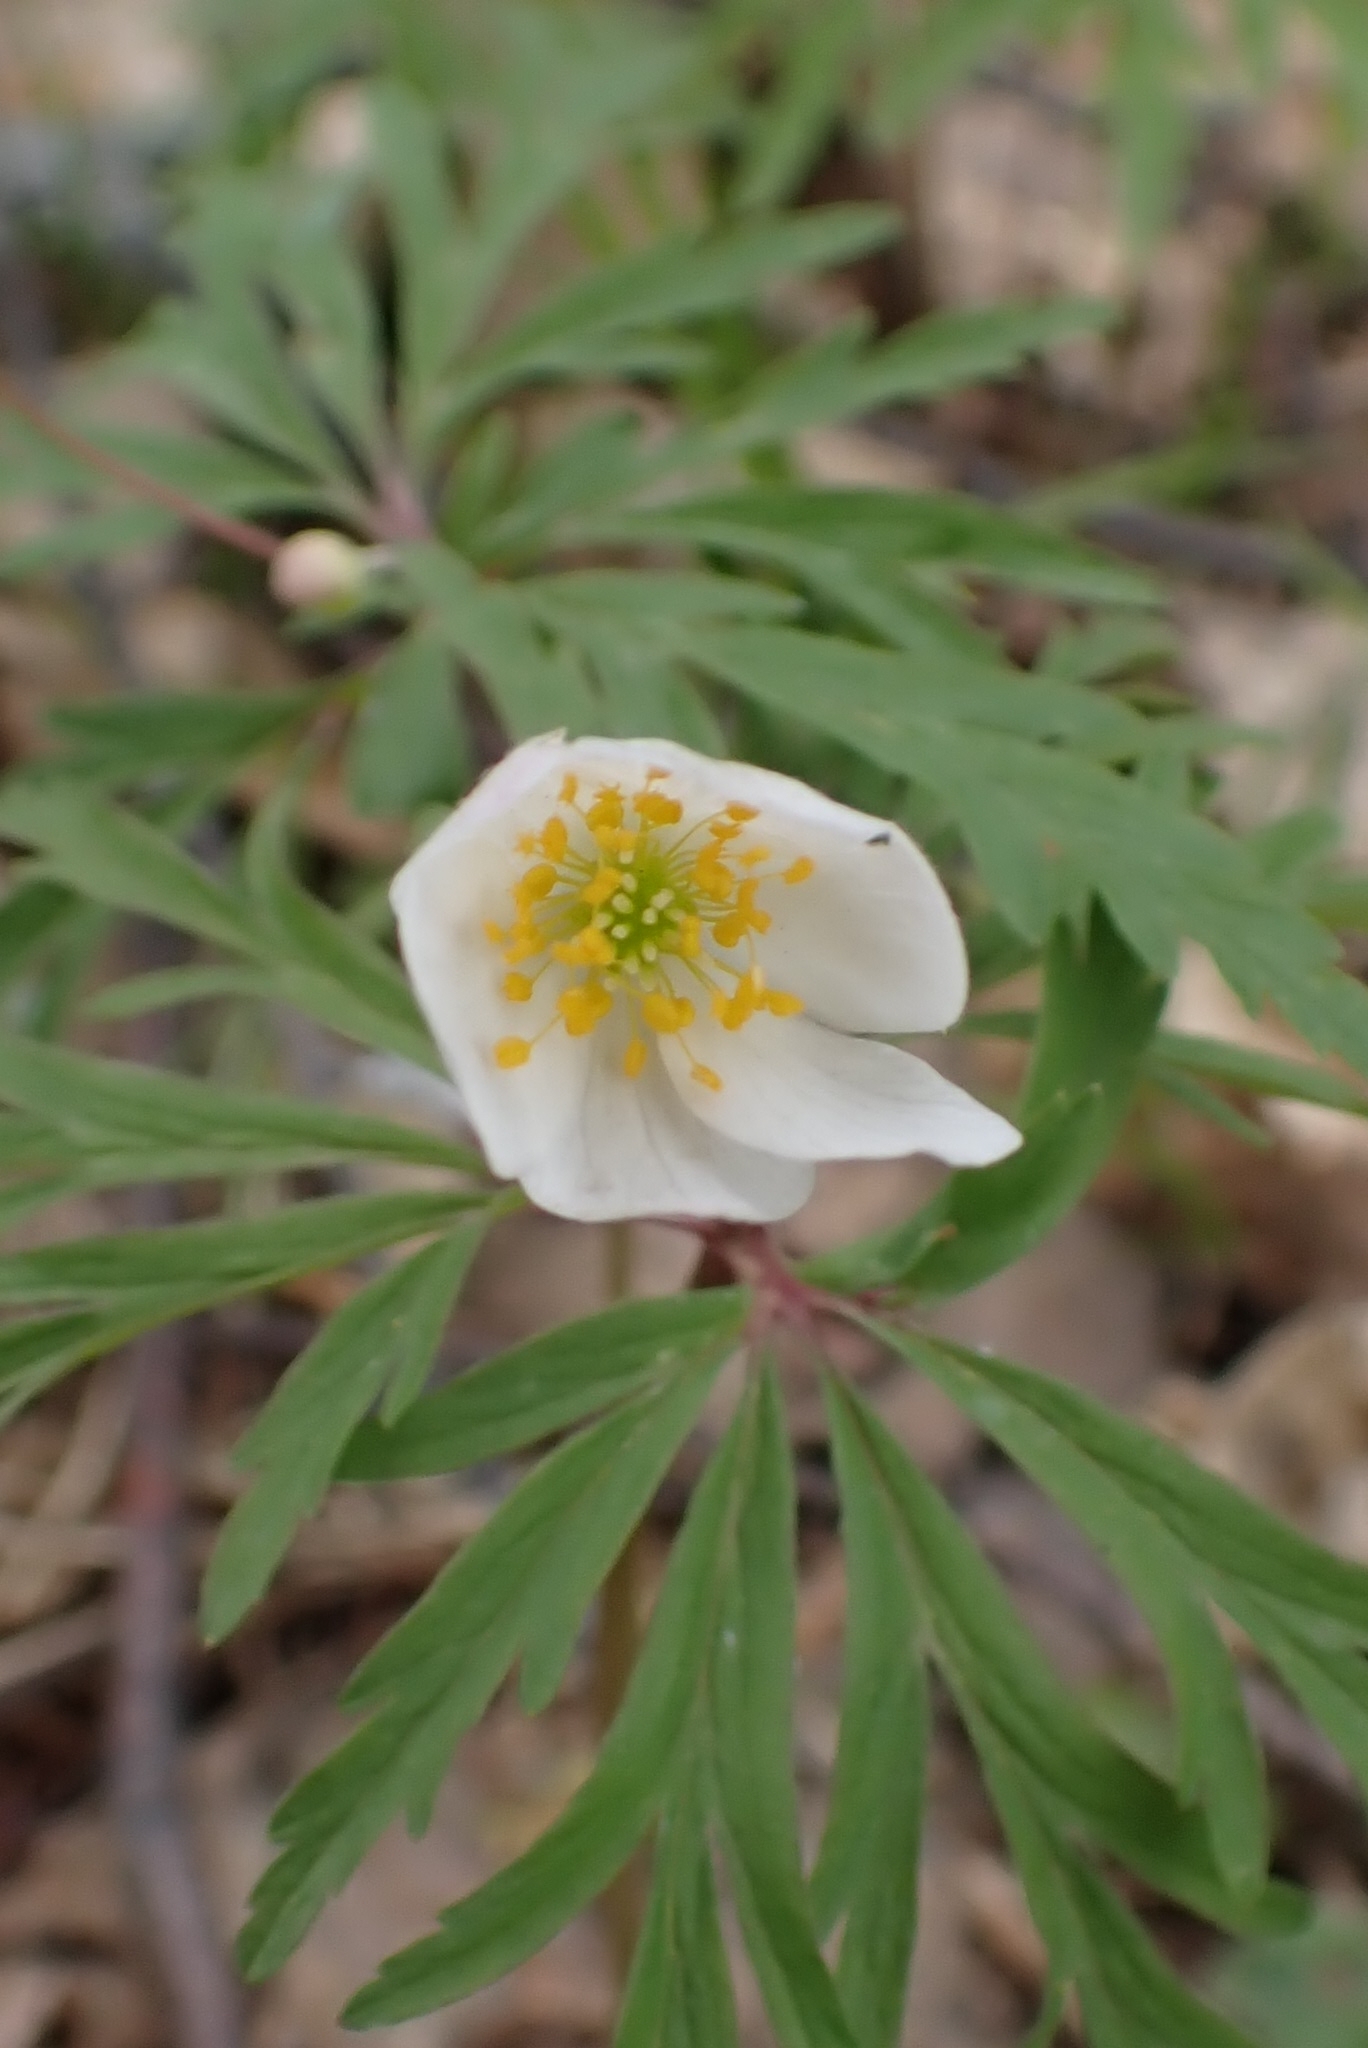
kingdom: Plantae
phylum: Tracheophyta
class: Magnoliopsida
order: Ranunculales
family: Ranunculaceae
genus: Anemone
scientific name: Anemone caerulea
